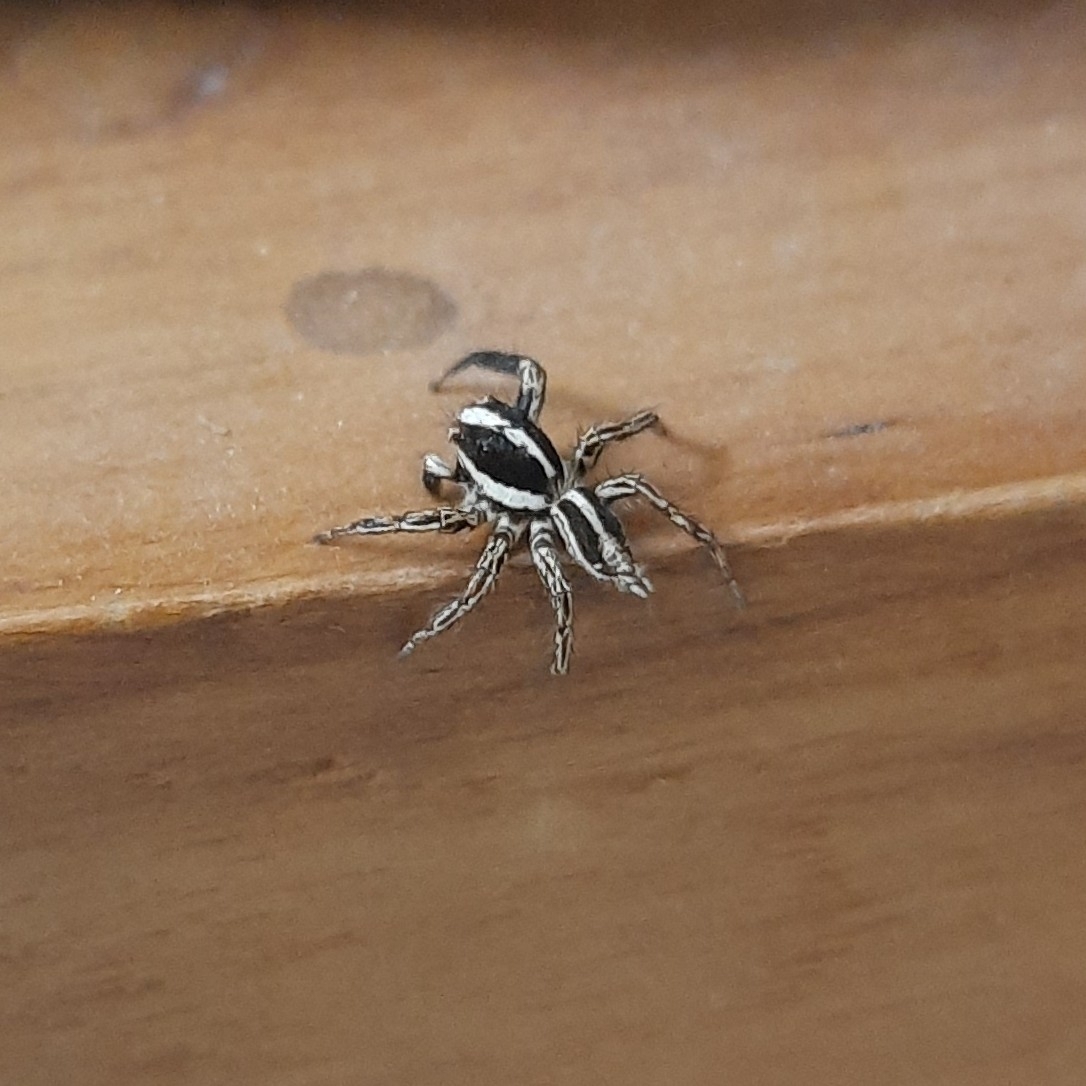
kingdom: Animalia
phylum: Arthropoda
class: Arachnida
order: Araneae
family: Salticidae
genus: Plexippus
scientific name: Plexippus paykulli
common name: Pantropical jumper
